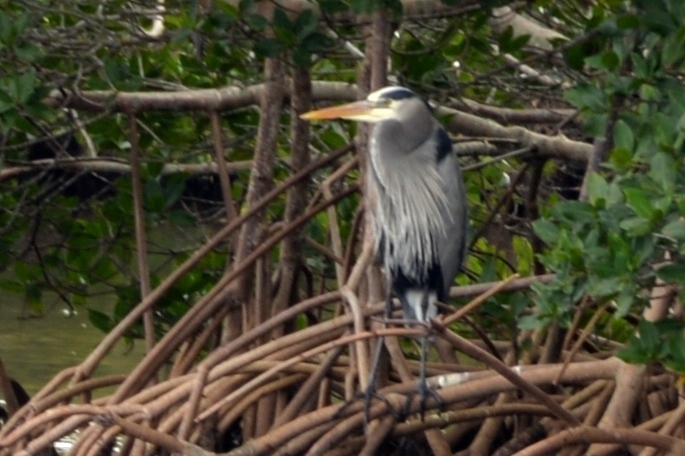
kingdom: Animalia
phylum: Chordata
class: Aves
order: Pelecaniformes
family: Ardeidae
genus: Ardea
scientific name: Ardea herodias
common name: Great blue heron
